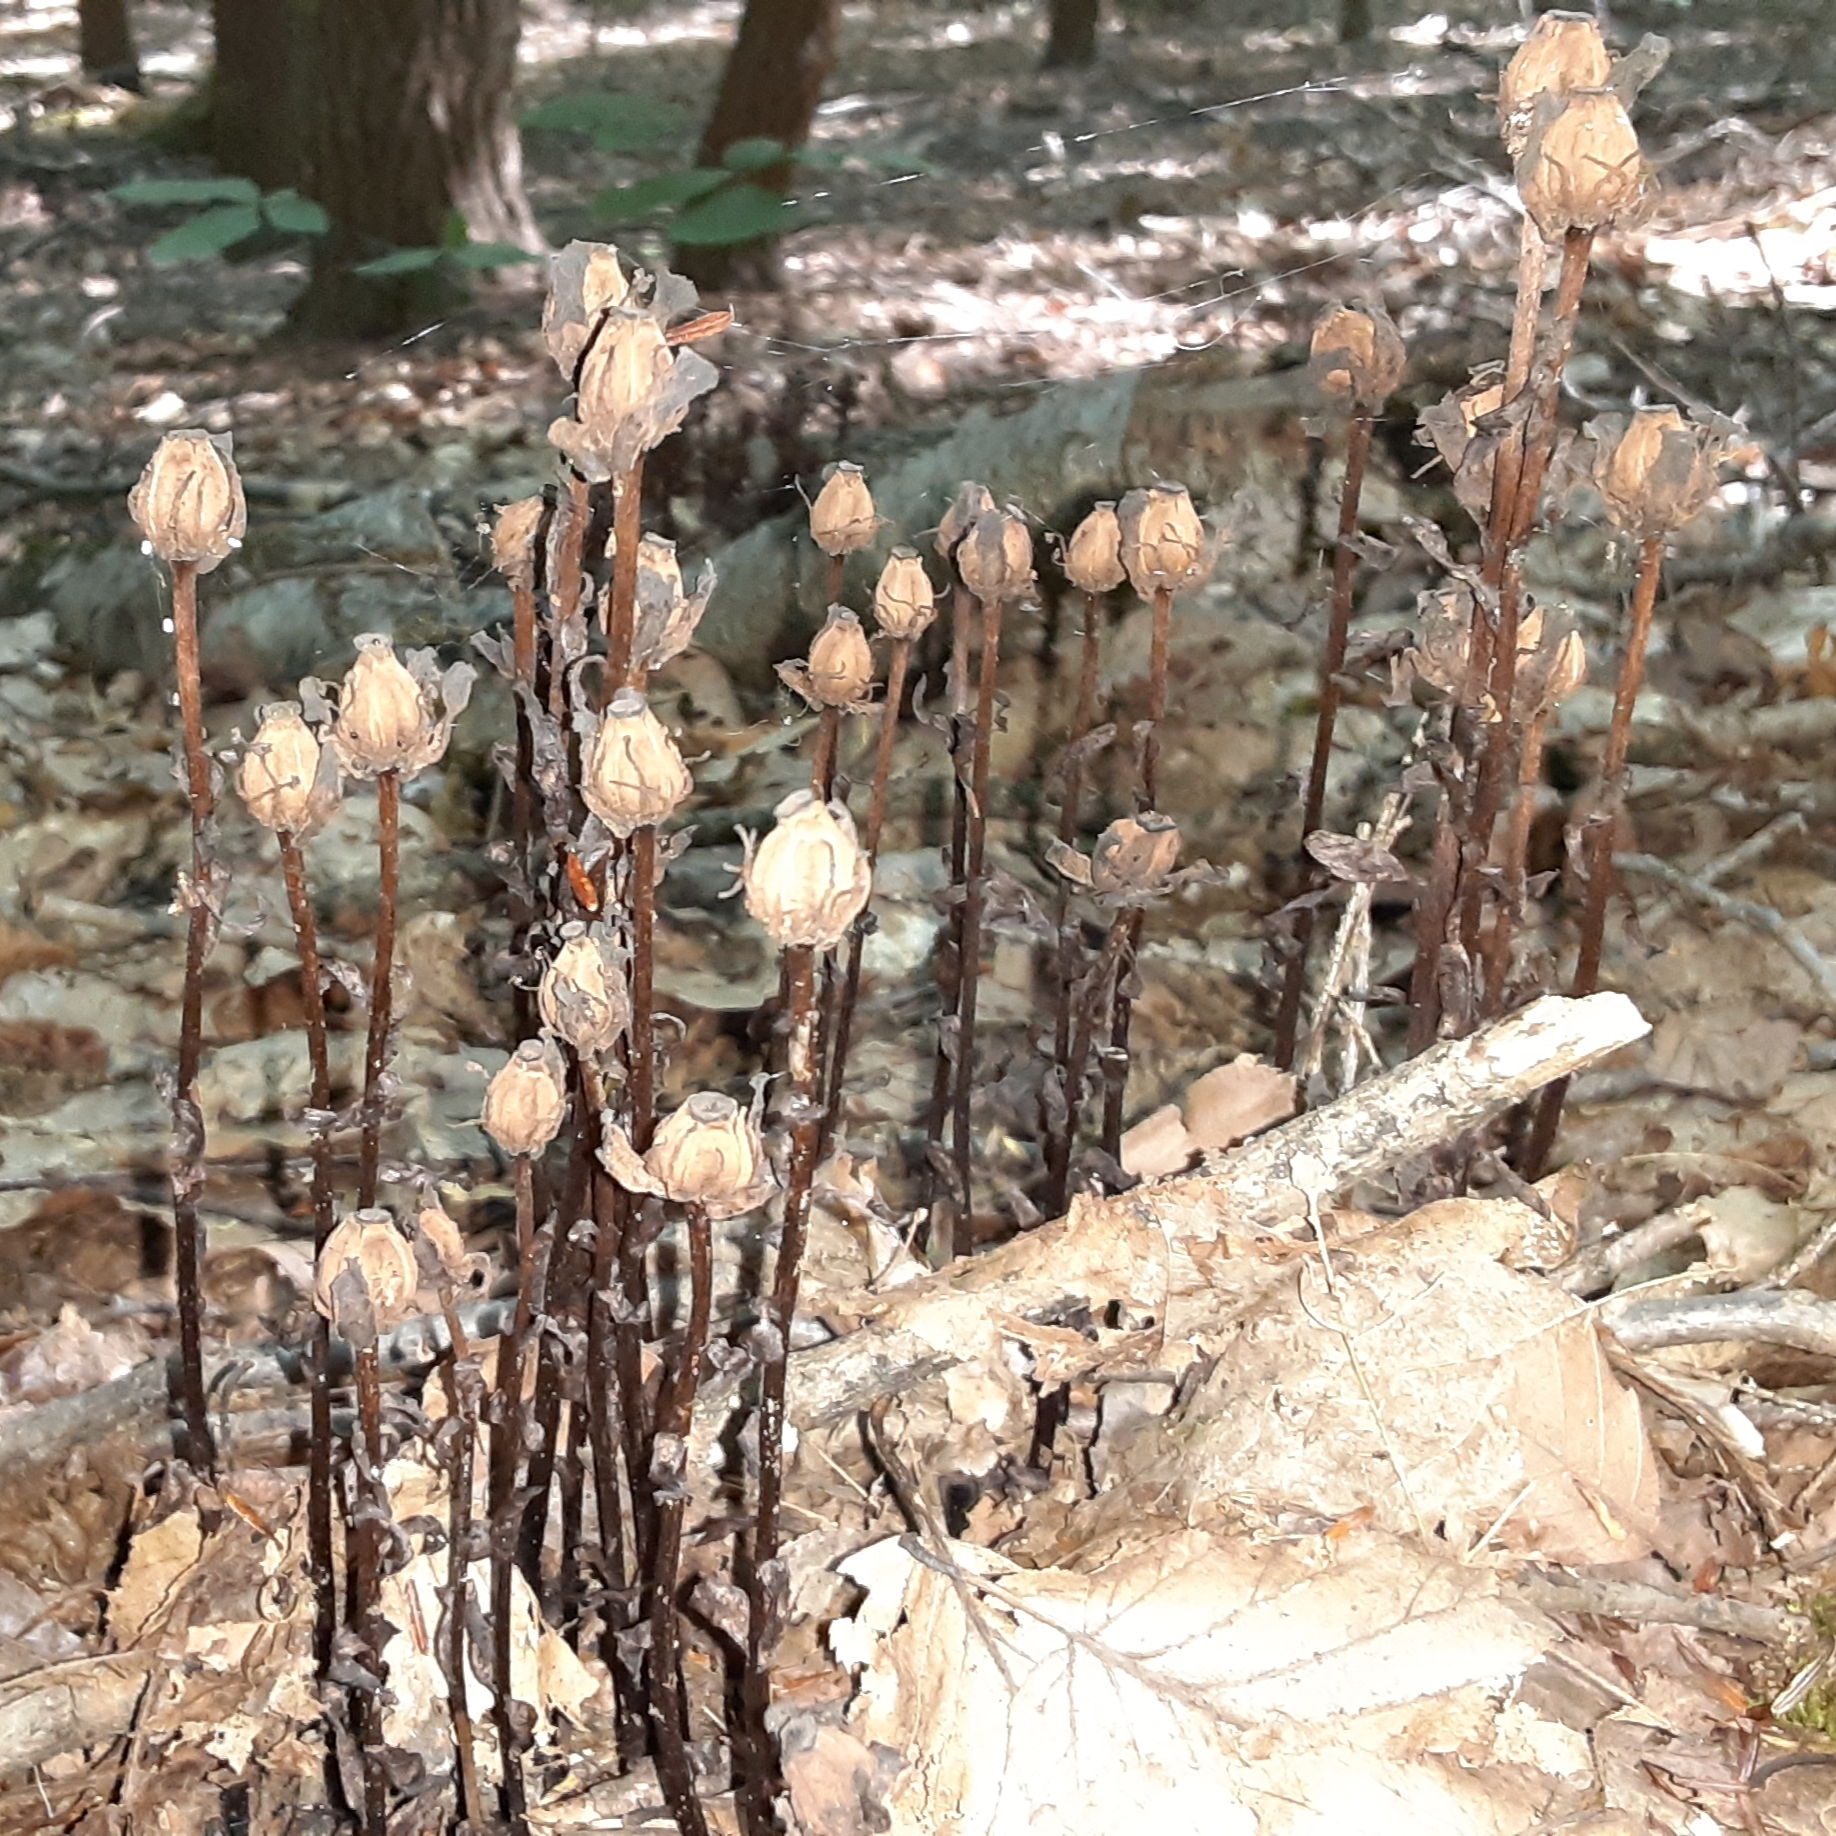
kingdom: Plantae
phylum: Tracheophyta
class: Magnoliopsida
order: Ericales
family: Ericaceae
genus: Monotropa
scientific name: Monotropa uniflora
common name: Convulsion root
